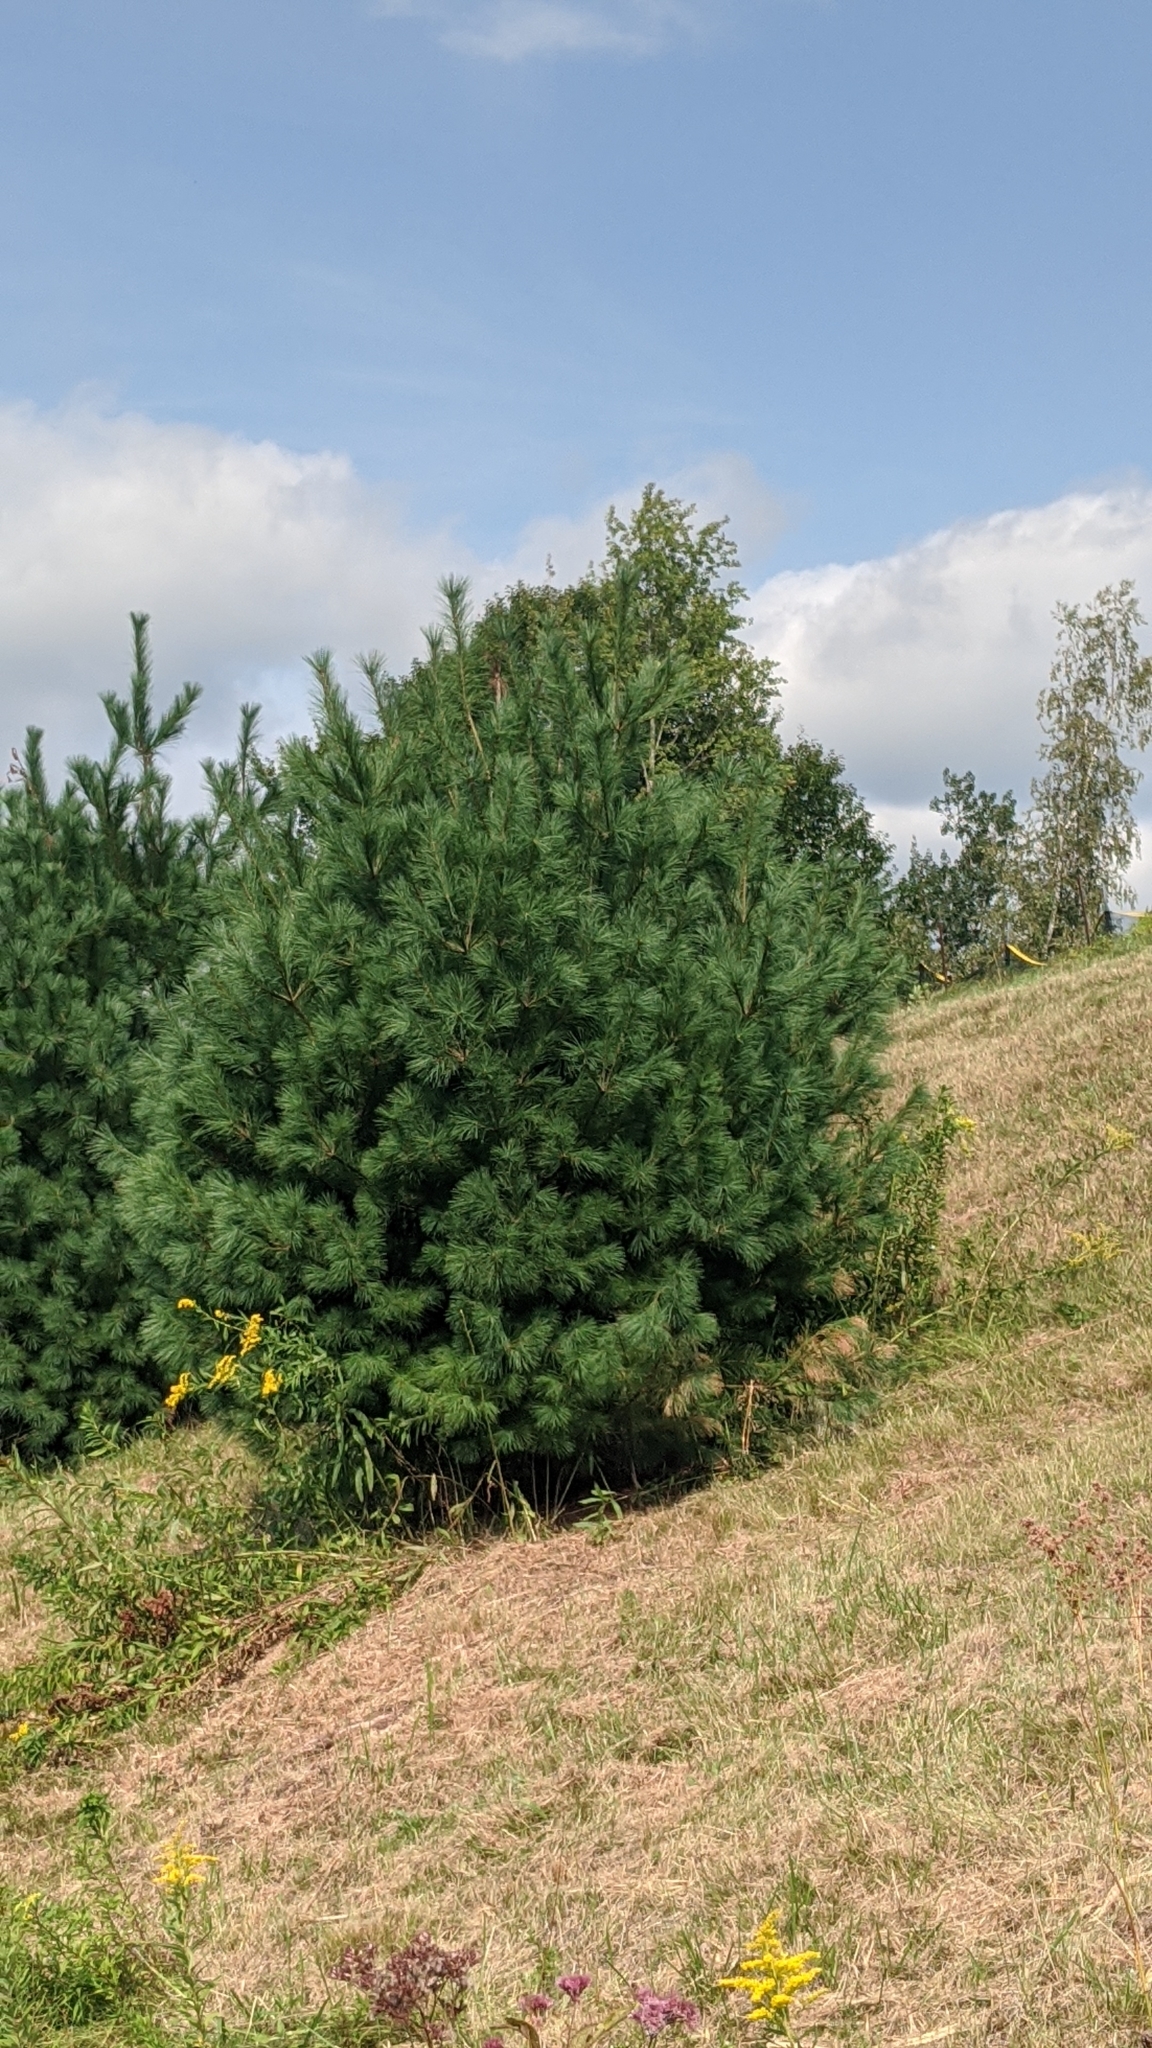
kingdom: Plantae
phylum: Tracheophyta
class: Pinopsida
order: Pinales
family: Pinaceae
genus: Pinus
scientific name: Pinus strobus
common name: Weymouth pine
